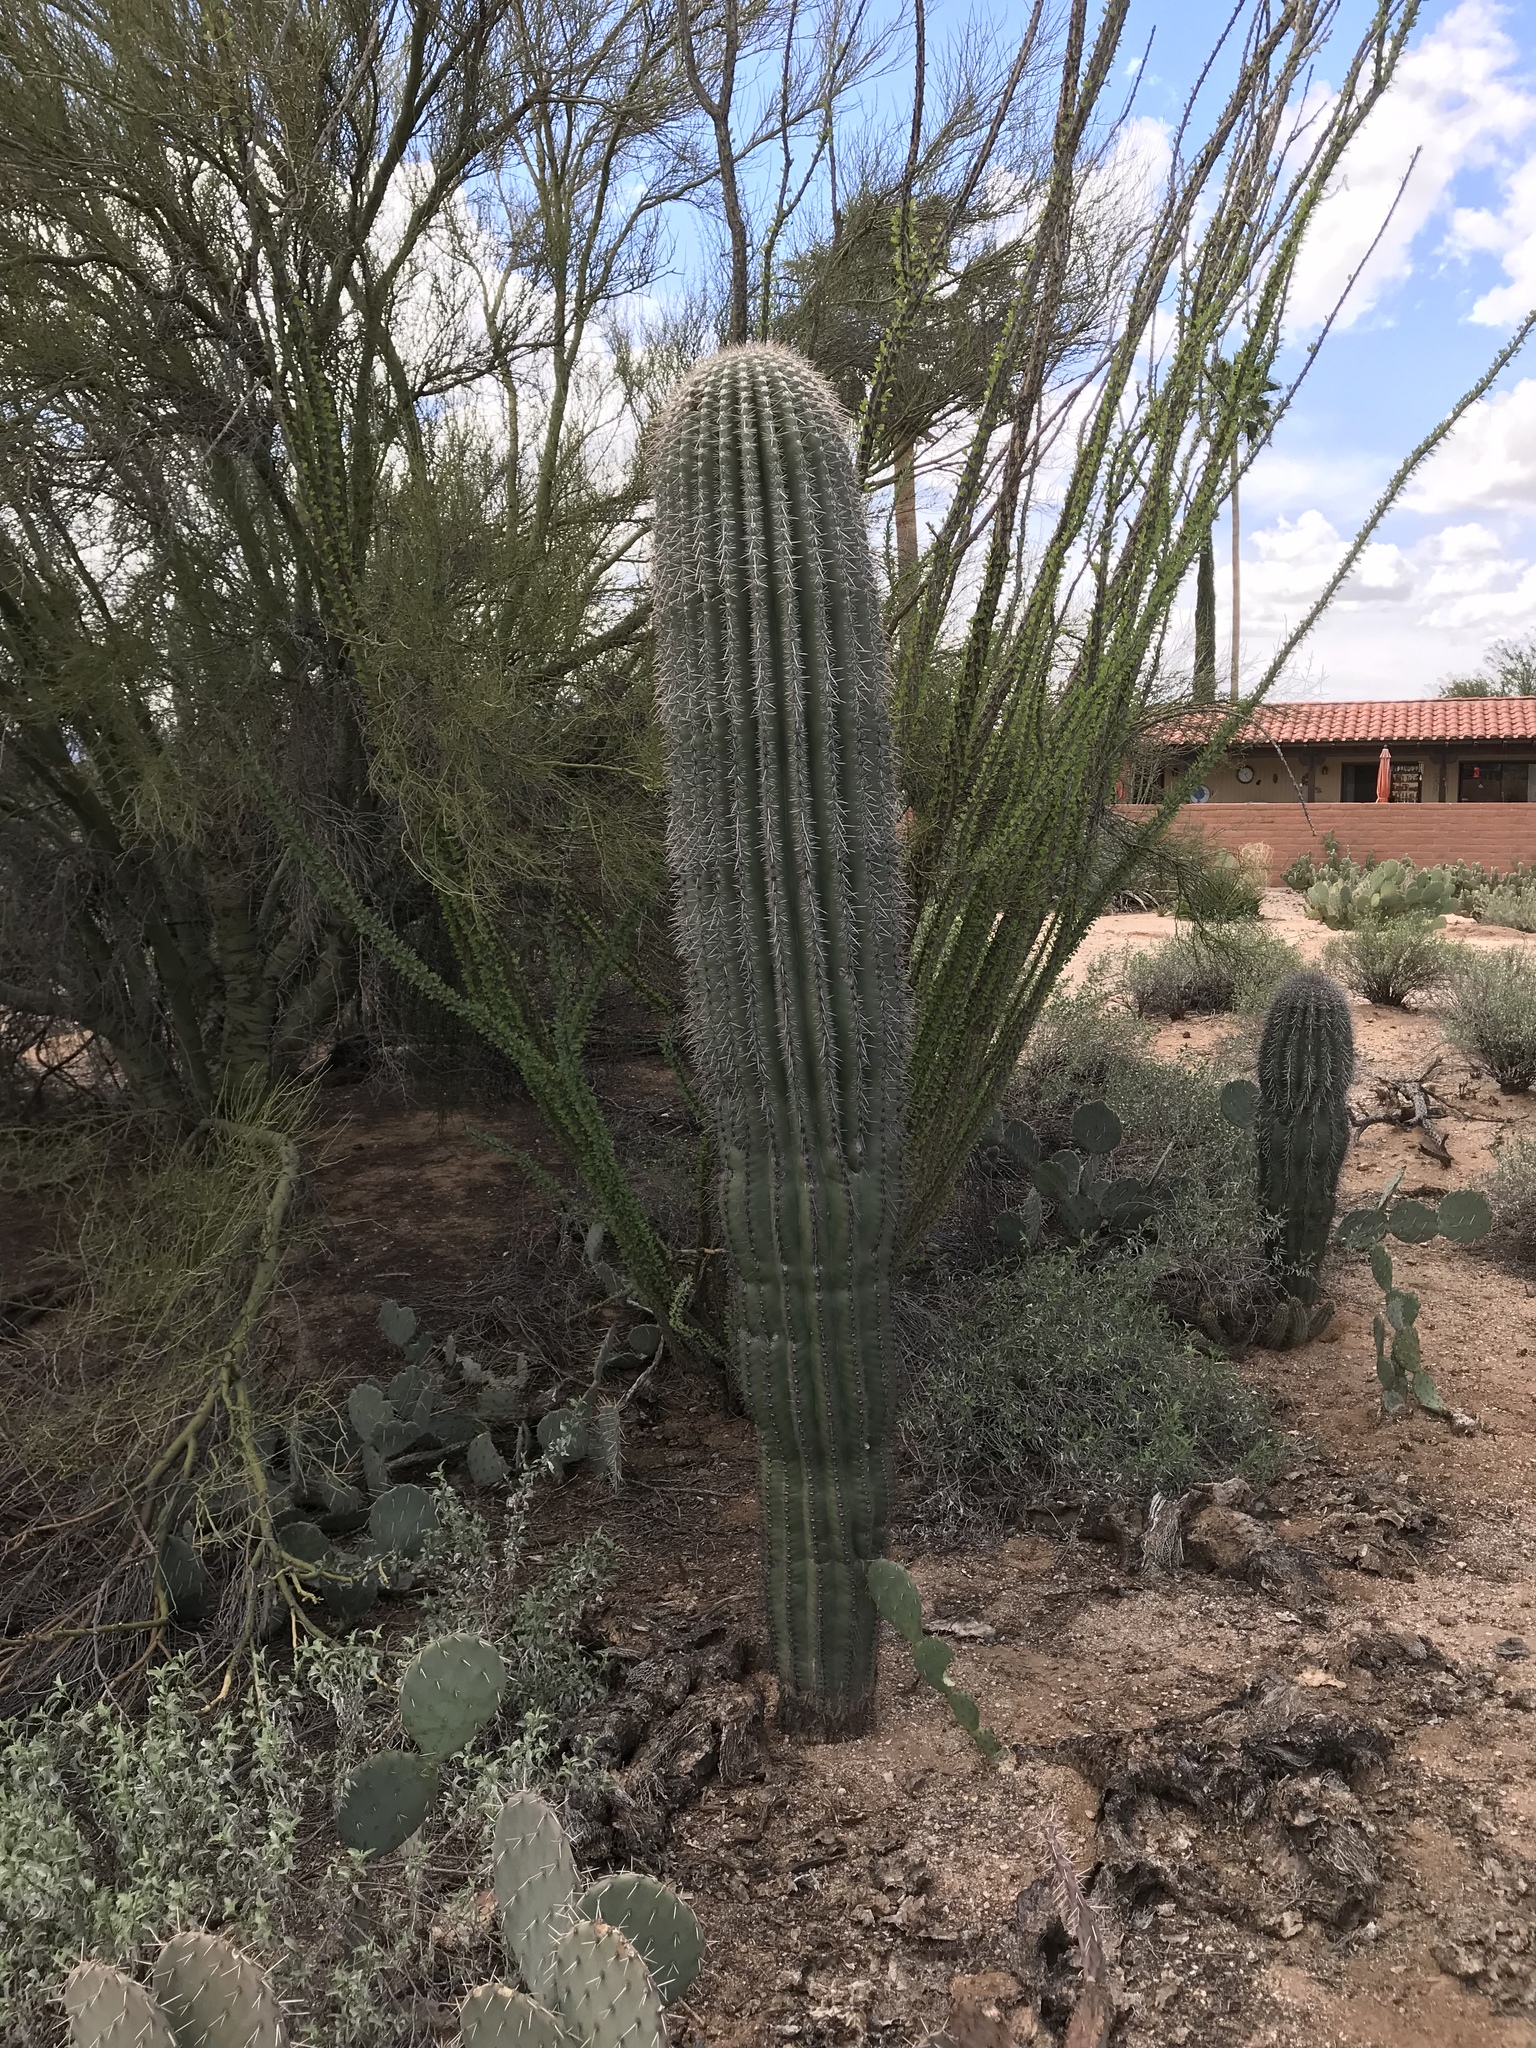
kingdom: Plantae
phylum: Tracheophyta
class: Magnoliopsida
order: Caryophyllales
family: Cactaceae
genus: Carnegiea
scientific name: Carnegiea gigantea
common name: Saguaro
